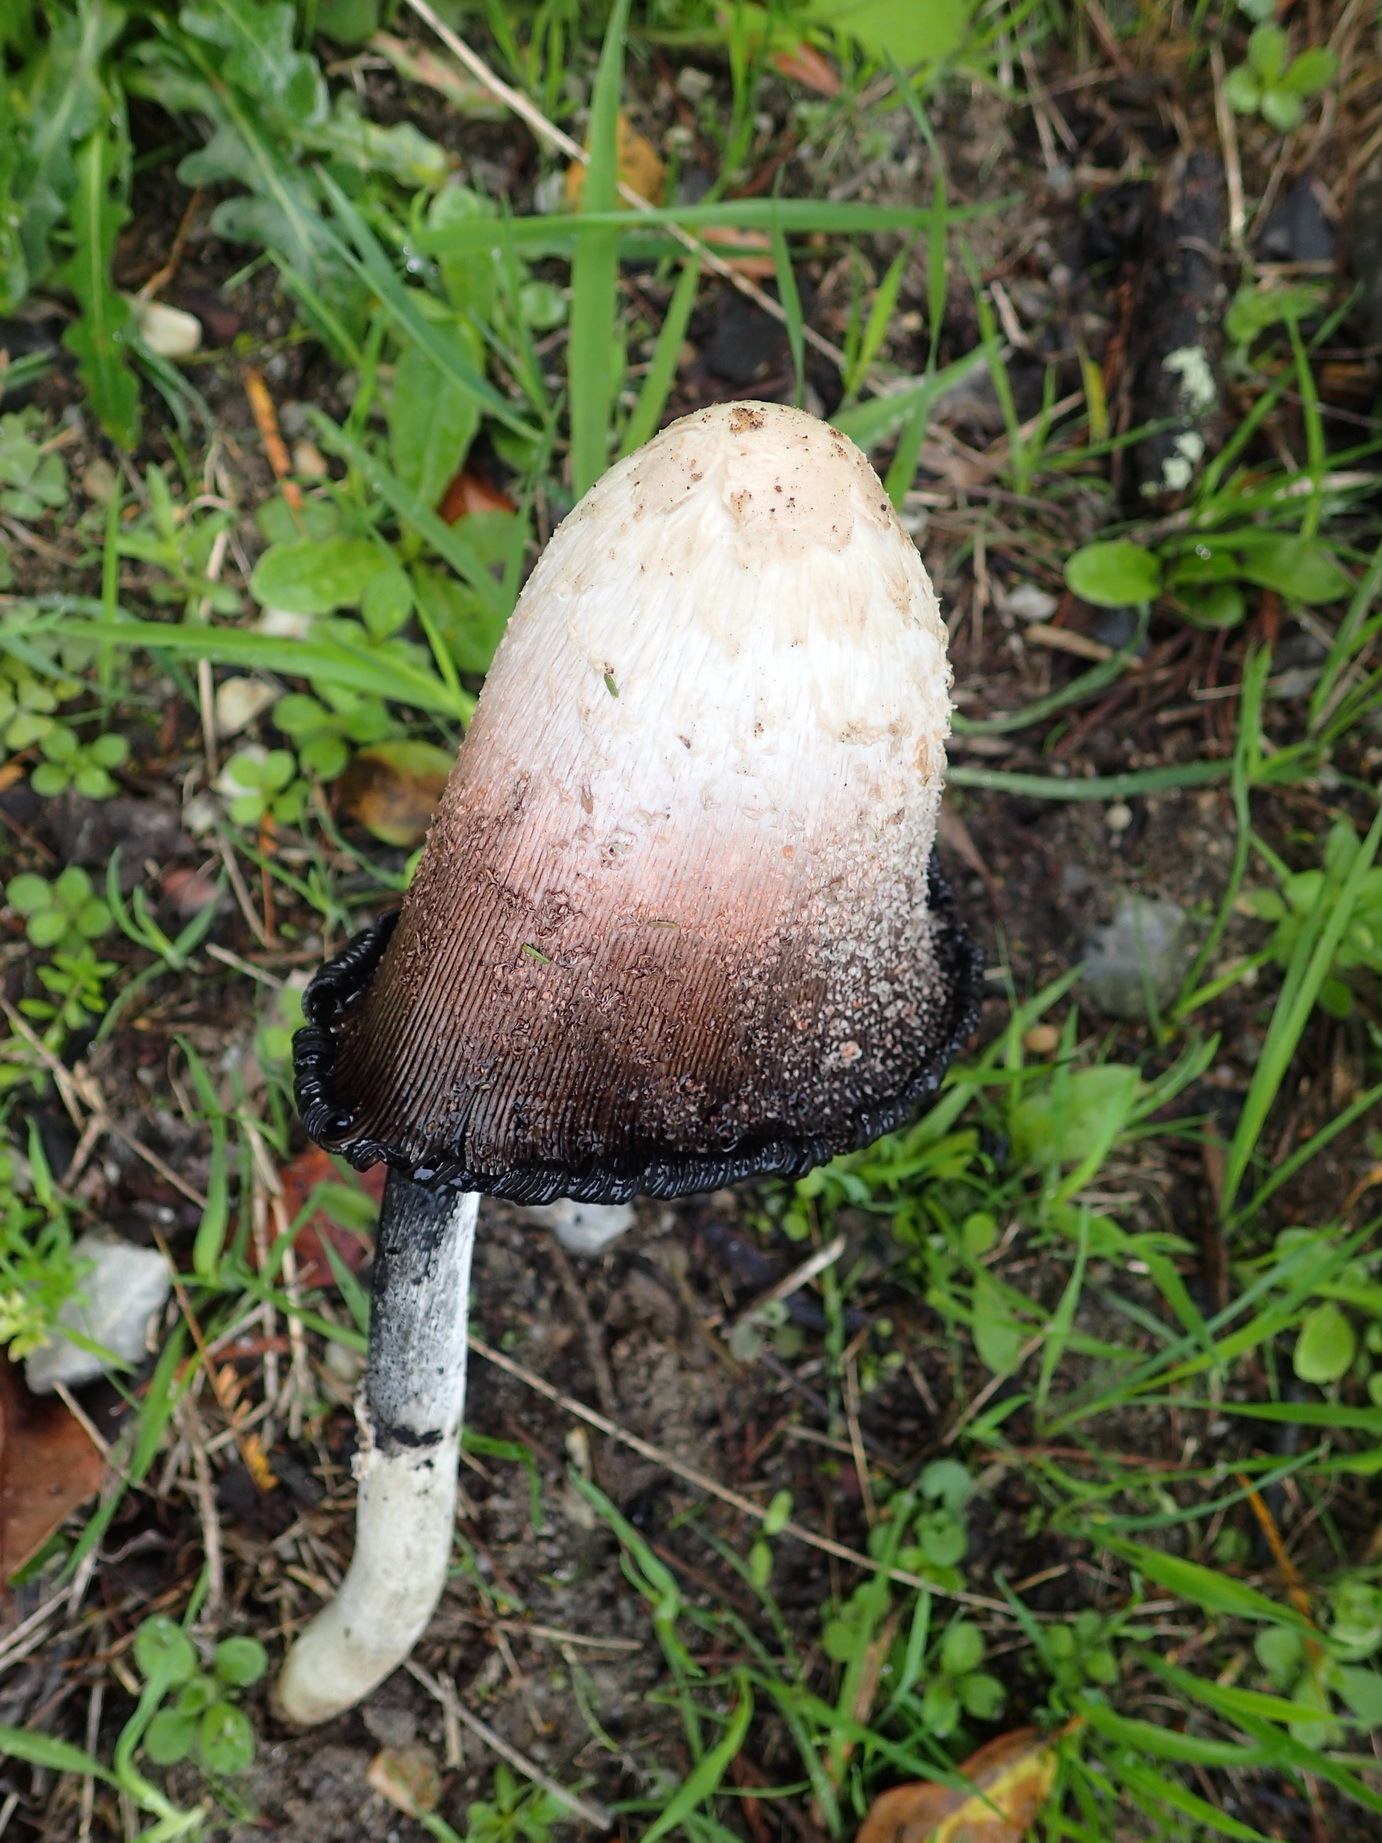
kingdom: Fungi
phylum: Basidiomycota
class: Agaricomycetes
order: Agaricales
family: Agaricaceae
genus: Coprinus
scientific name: Coprinus comatus
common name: Lawyer's wig
